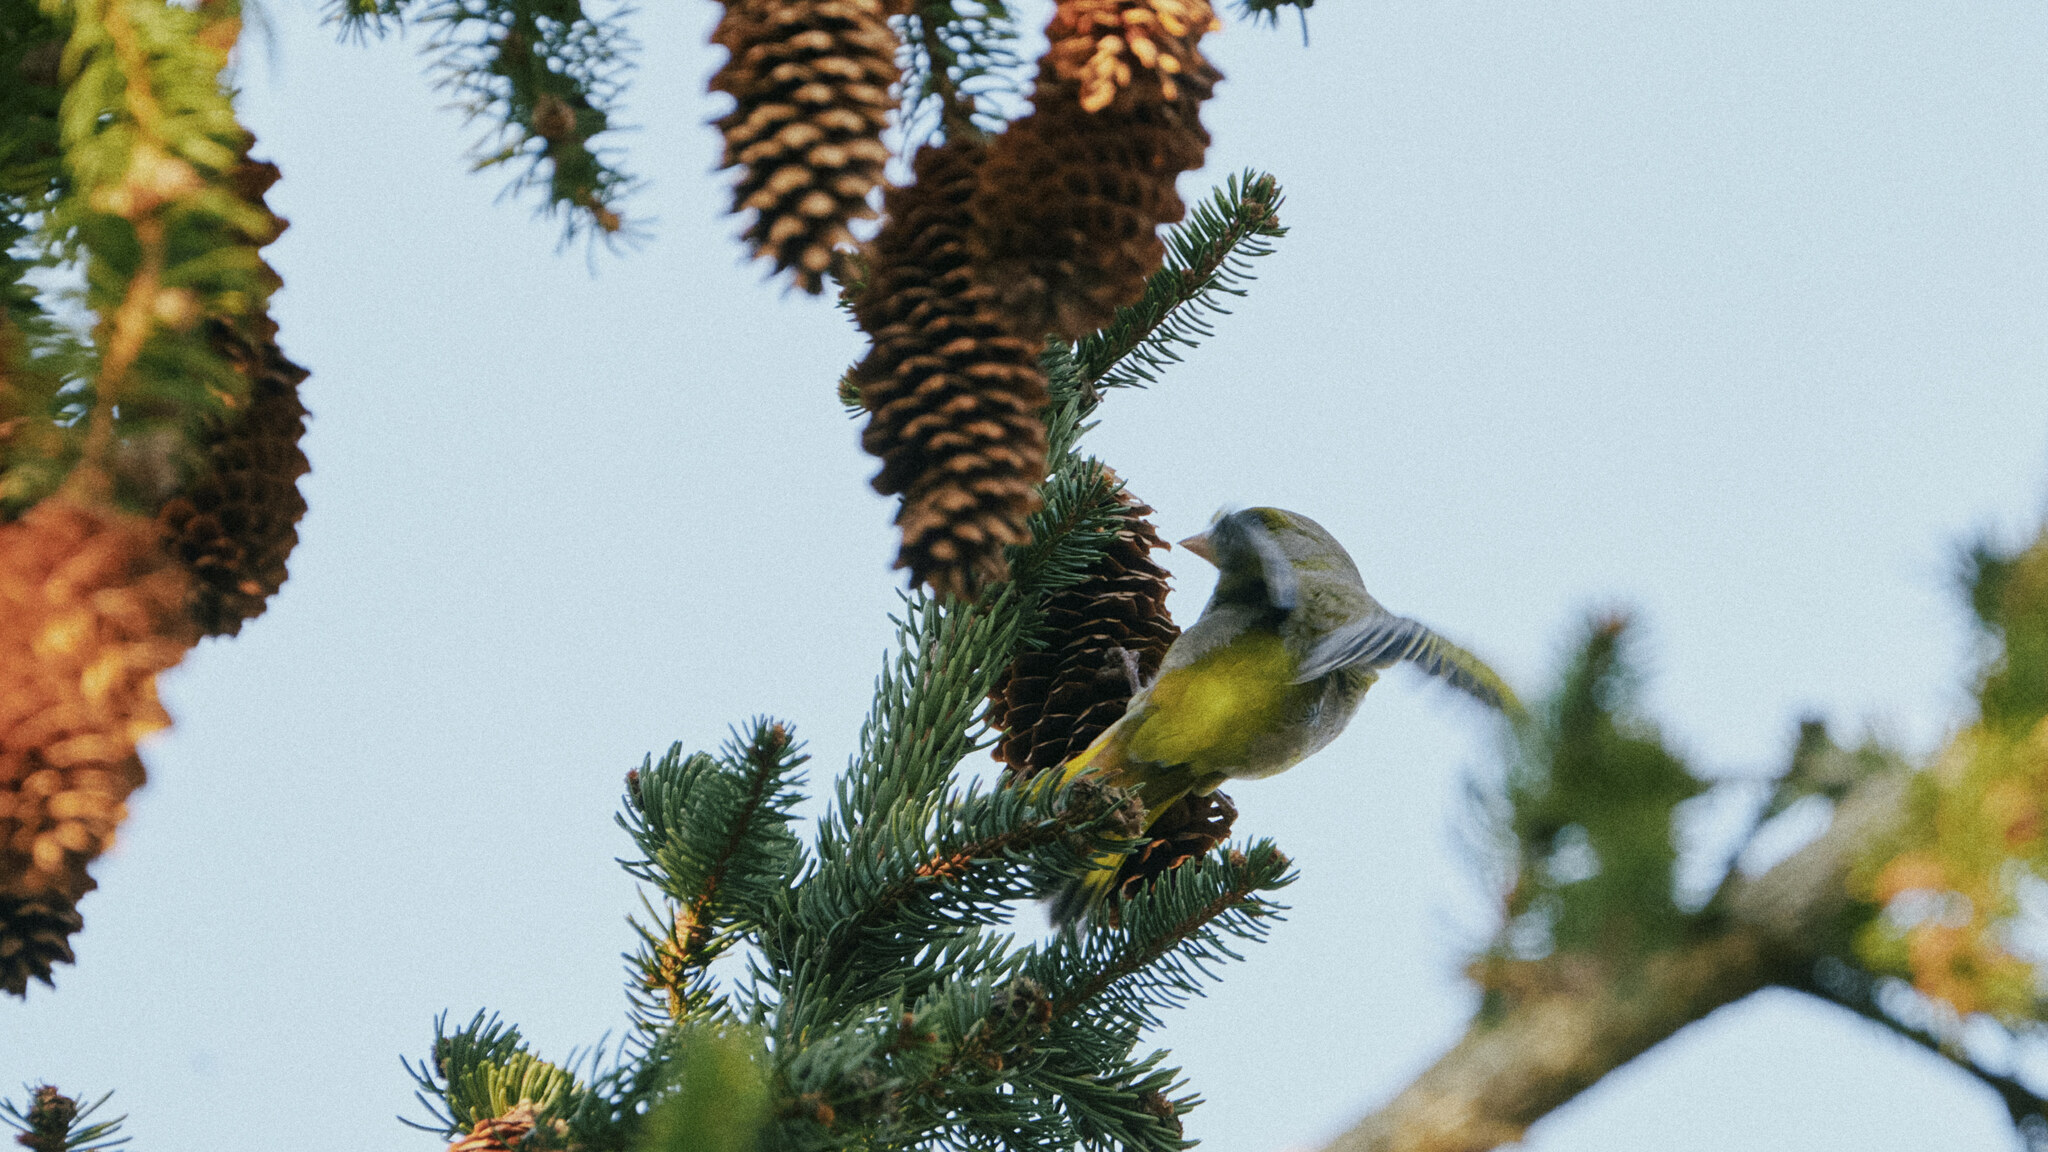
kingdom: Plantae
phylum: Tracheophyta
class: Liliopsida
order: Poales
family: Poaceae
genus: Chloris
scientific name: Chloris chloris
